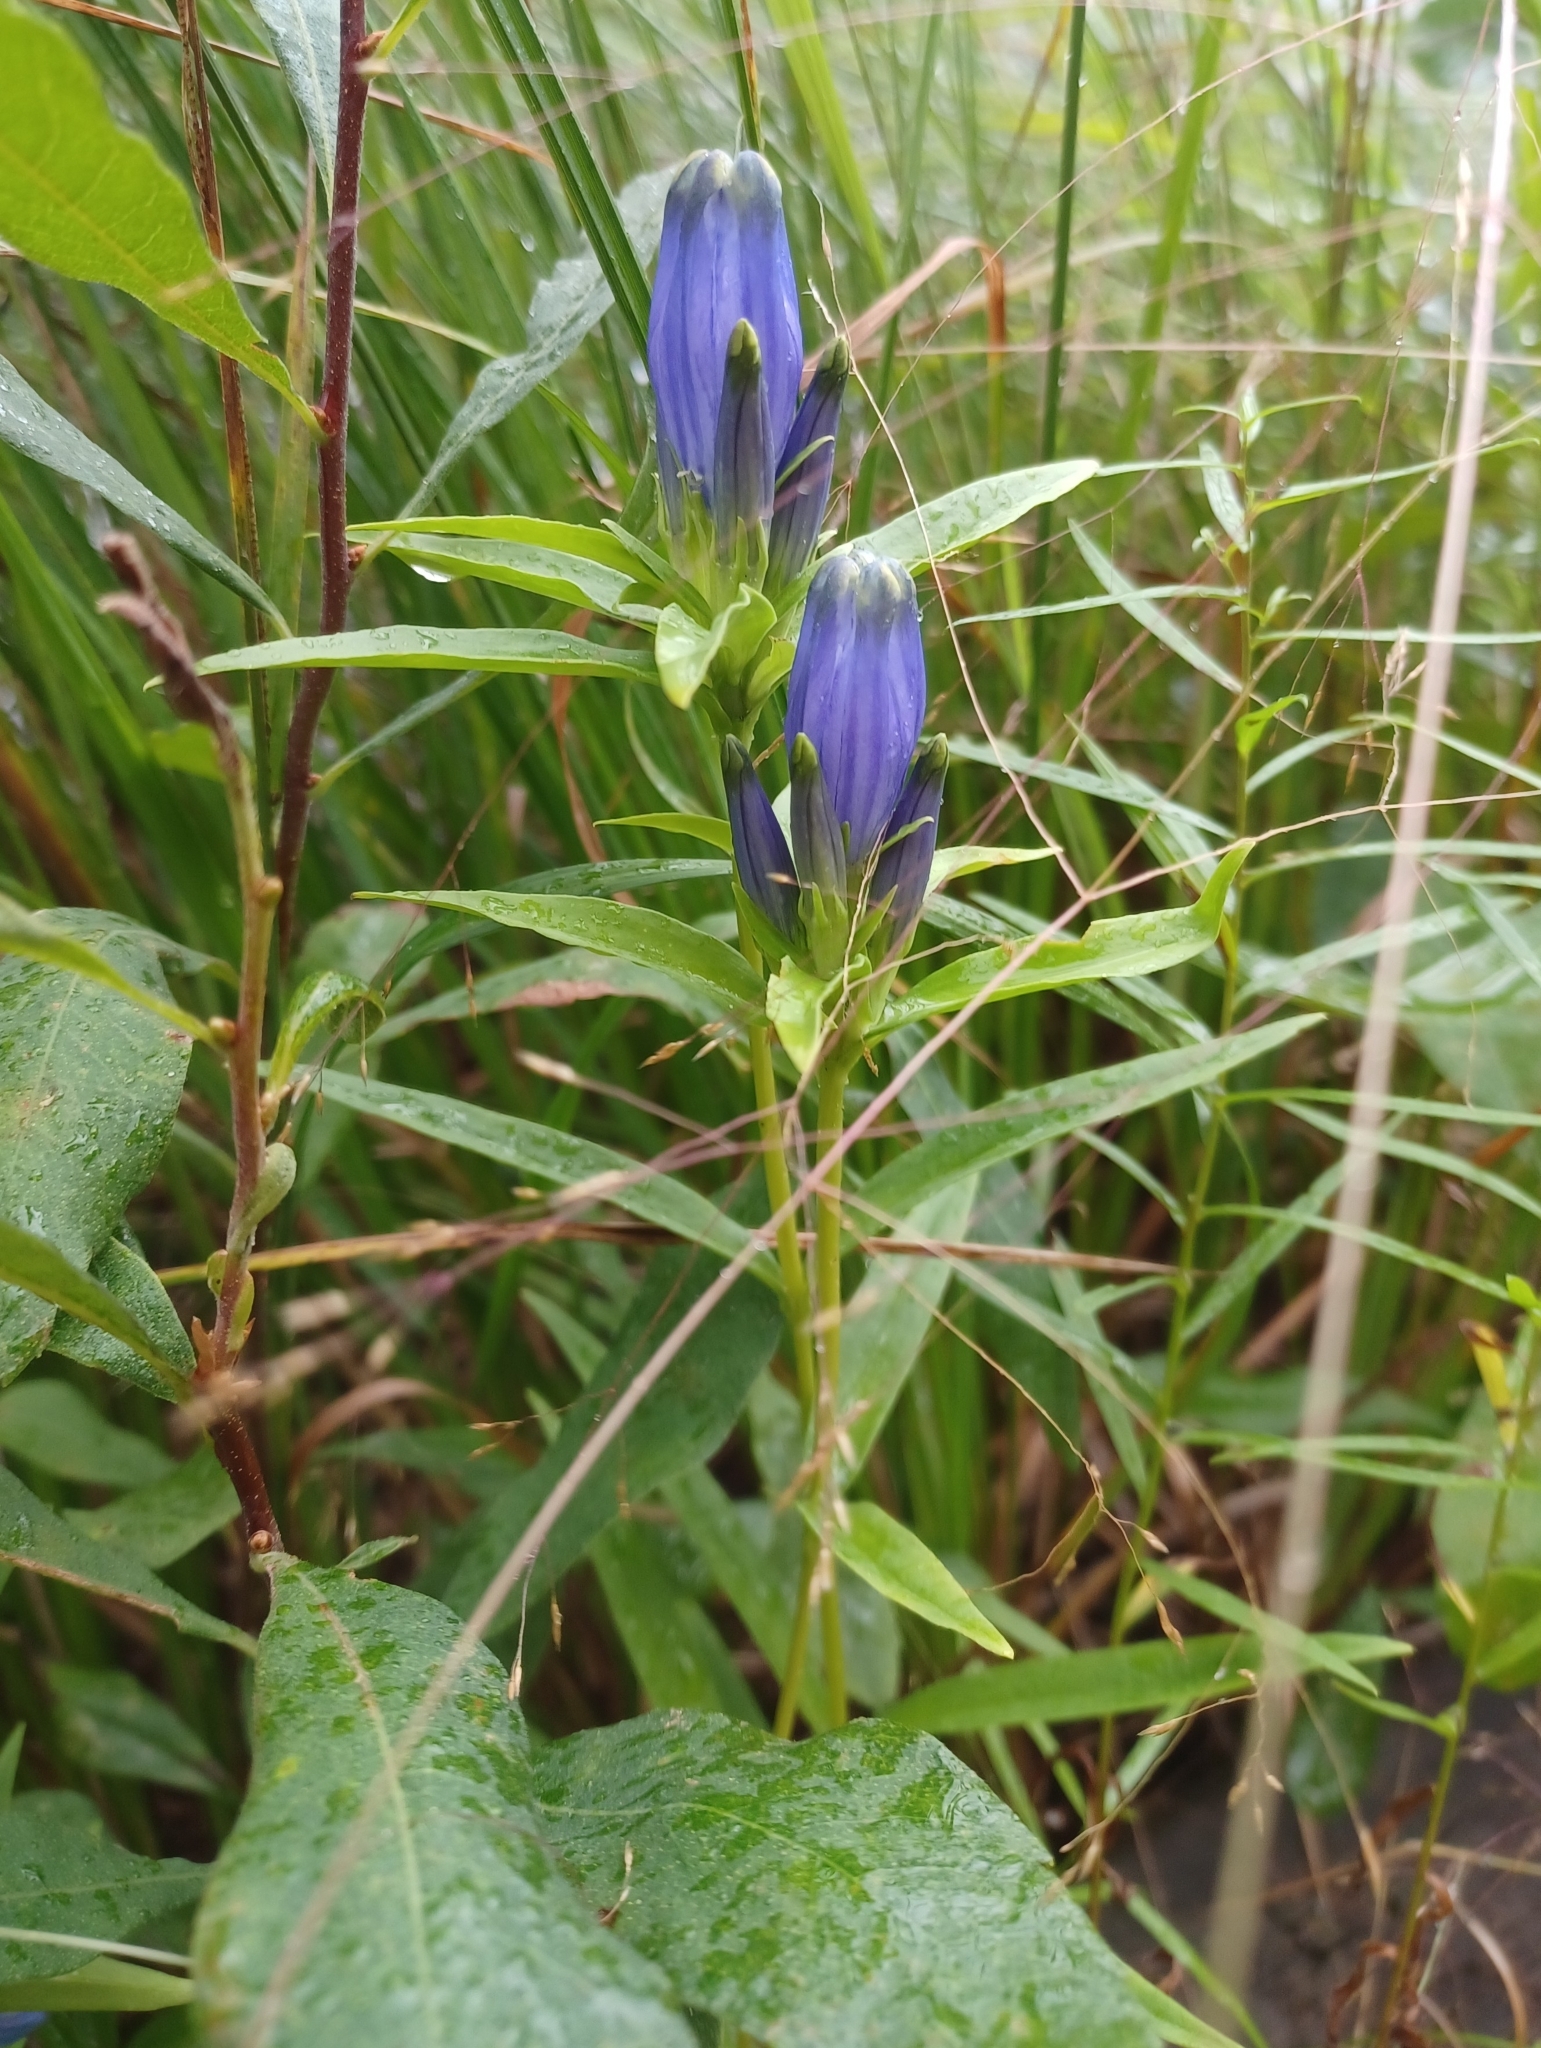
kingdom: Plantae
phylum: Tracheophyta
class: Magnoliopsida
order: Gentianales
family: Gentianaceae
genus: Gentiana
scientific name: Gentiana linearis
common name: Bastard gentian
